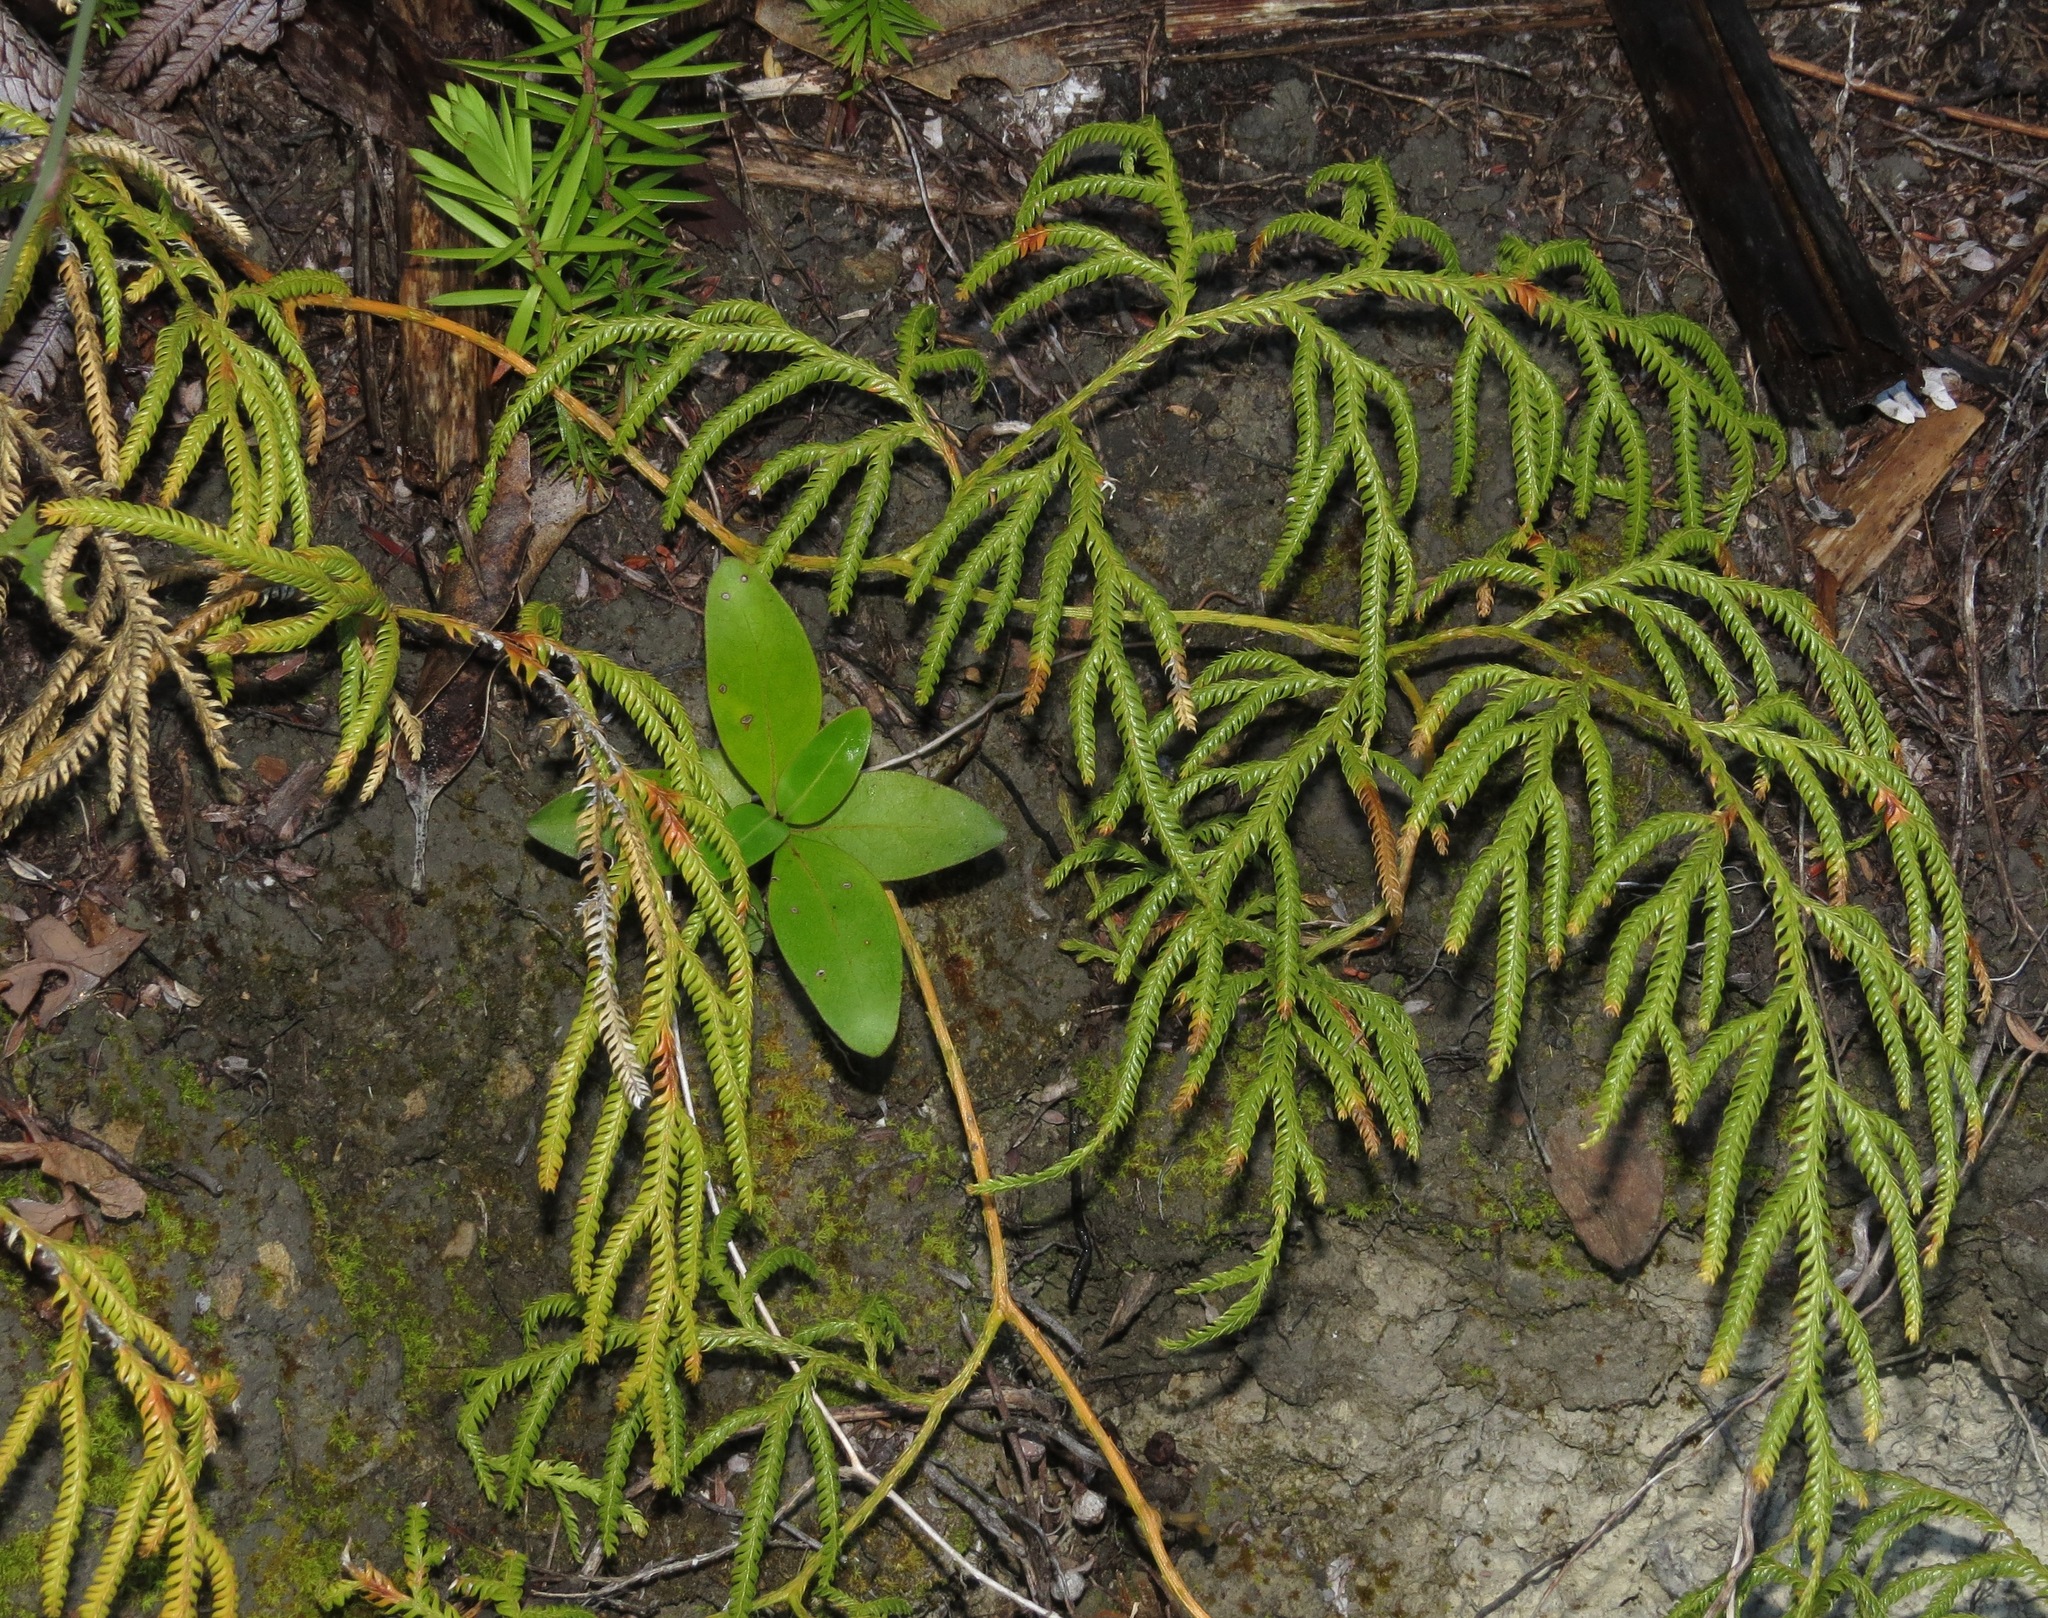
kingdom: Plantae
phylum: Tracheophyta
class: Lycopodiopsida
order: Lycopodiales
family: Lycopodiaceae
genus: Lycopodium
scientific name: Lycopodium volubile
